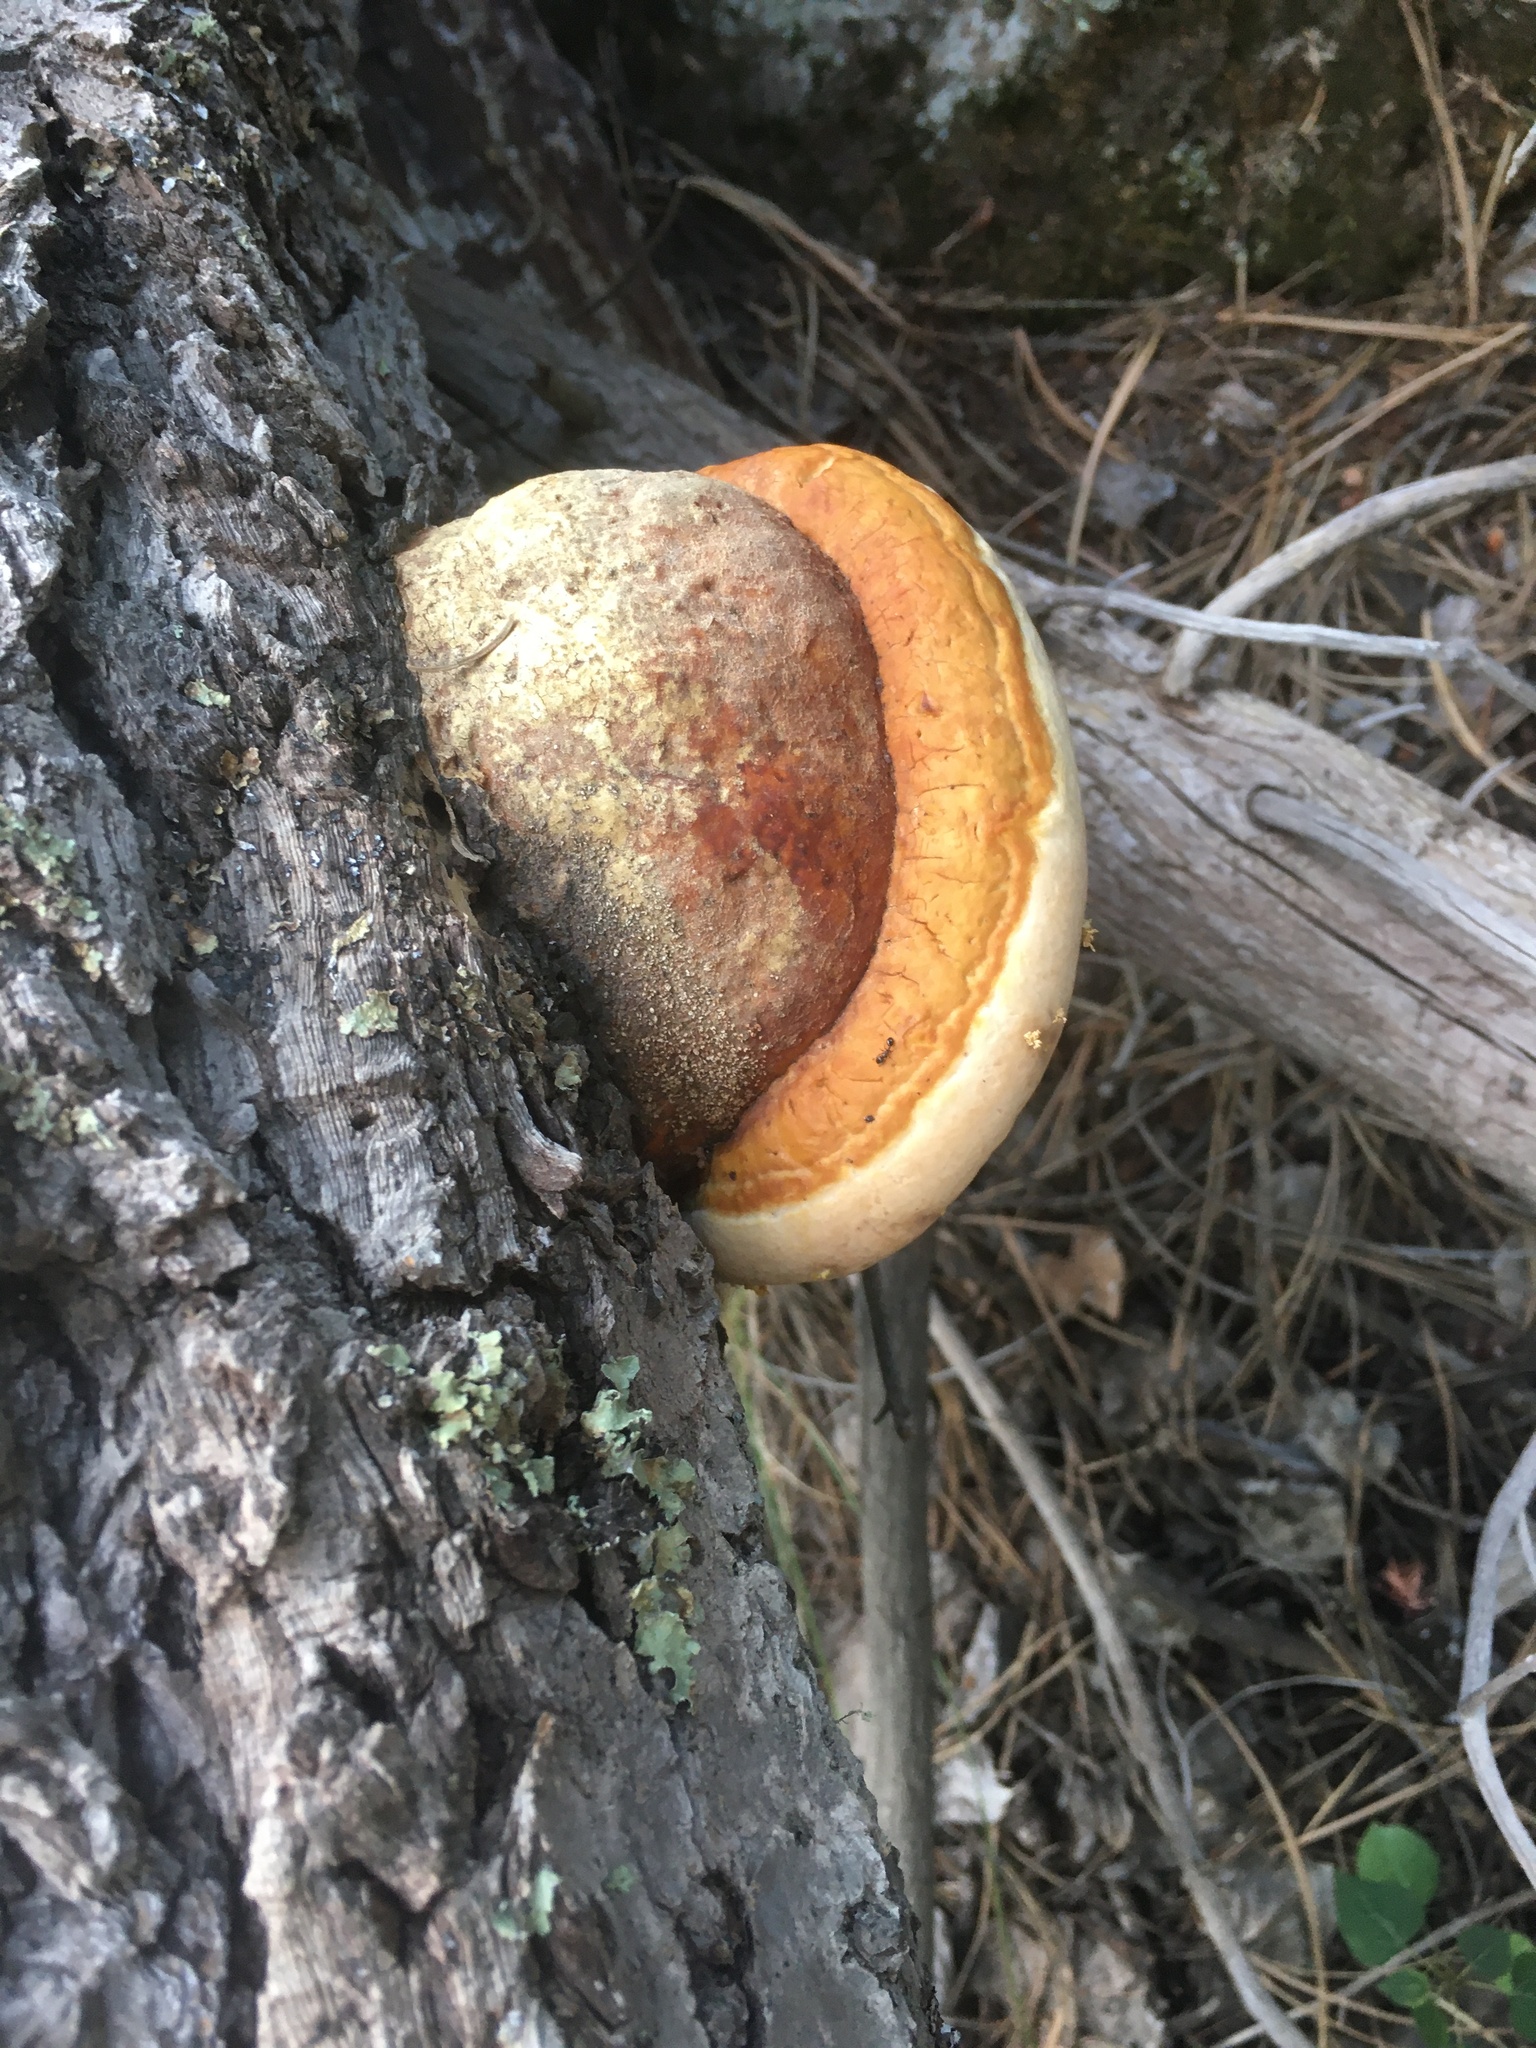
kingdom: Fungi
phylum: Basidiomycota
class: Agaricomycetes
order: Polyporales
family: Fomitopsidaceae
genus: Fomitopsis
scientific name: Fomitopsis schrenkii
